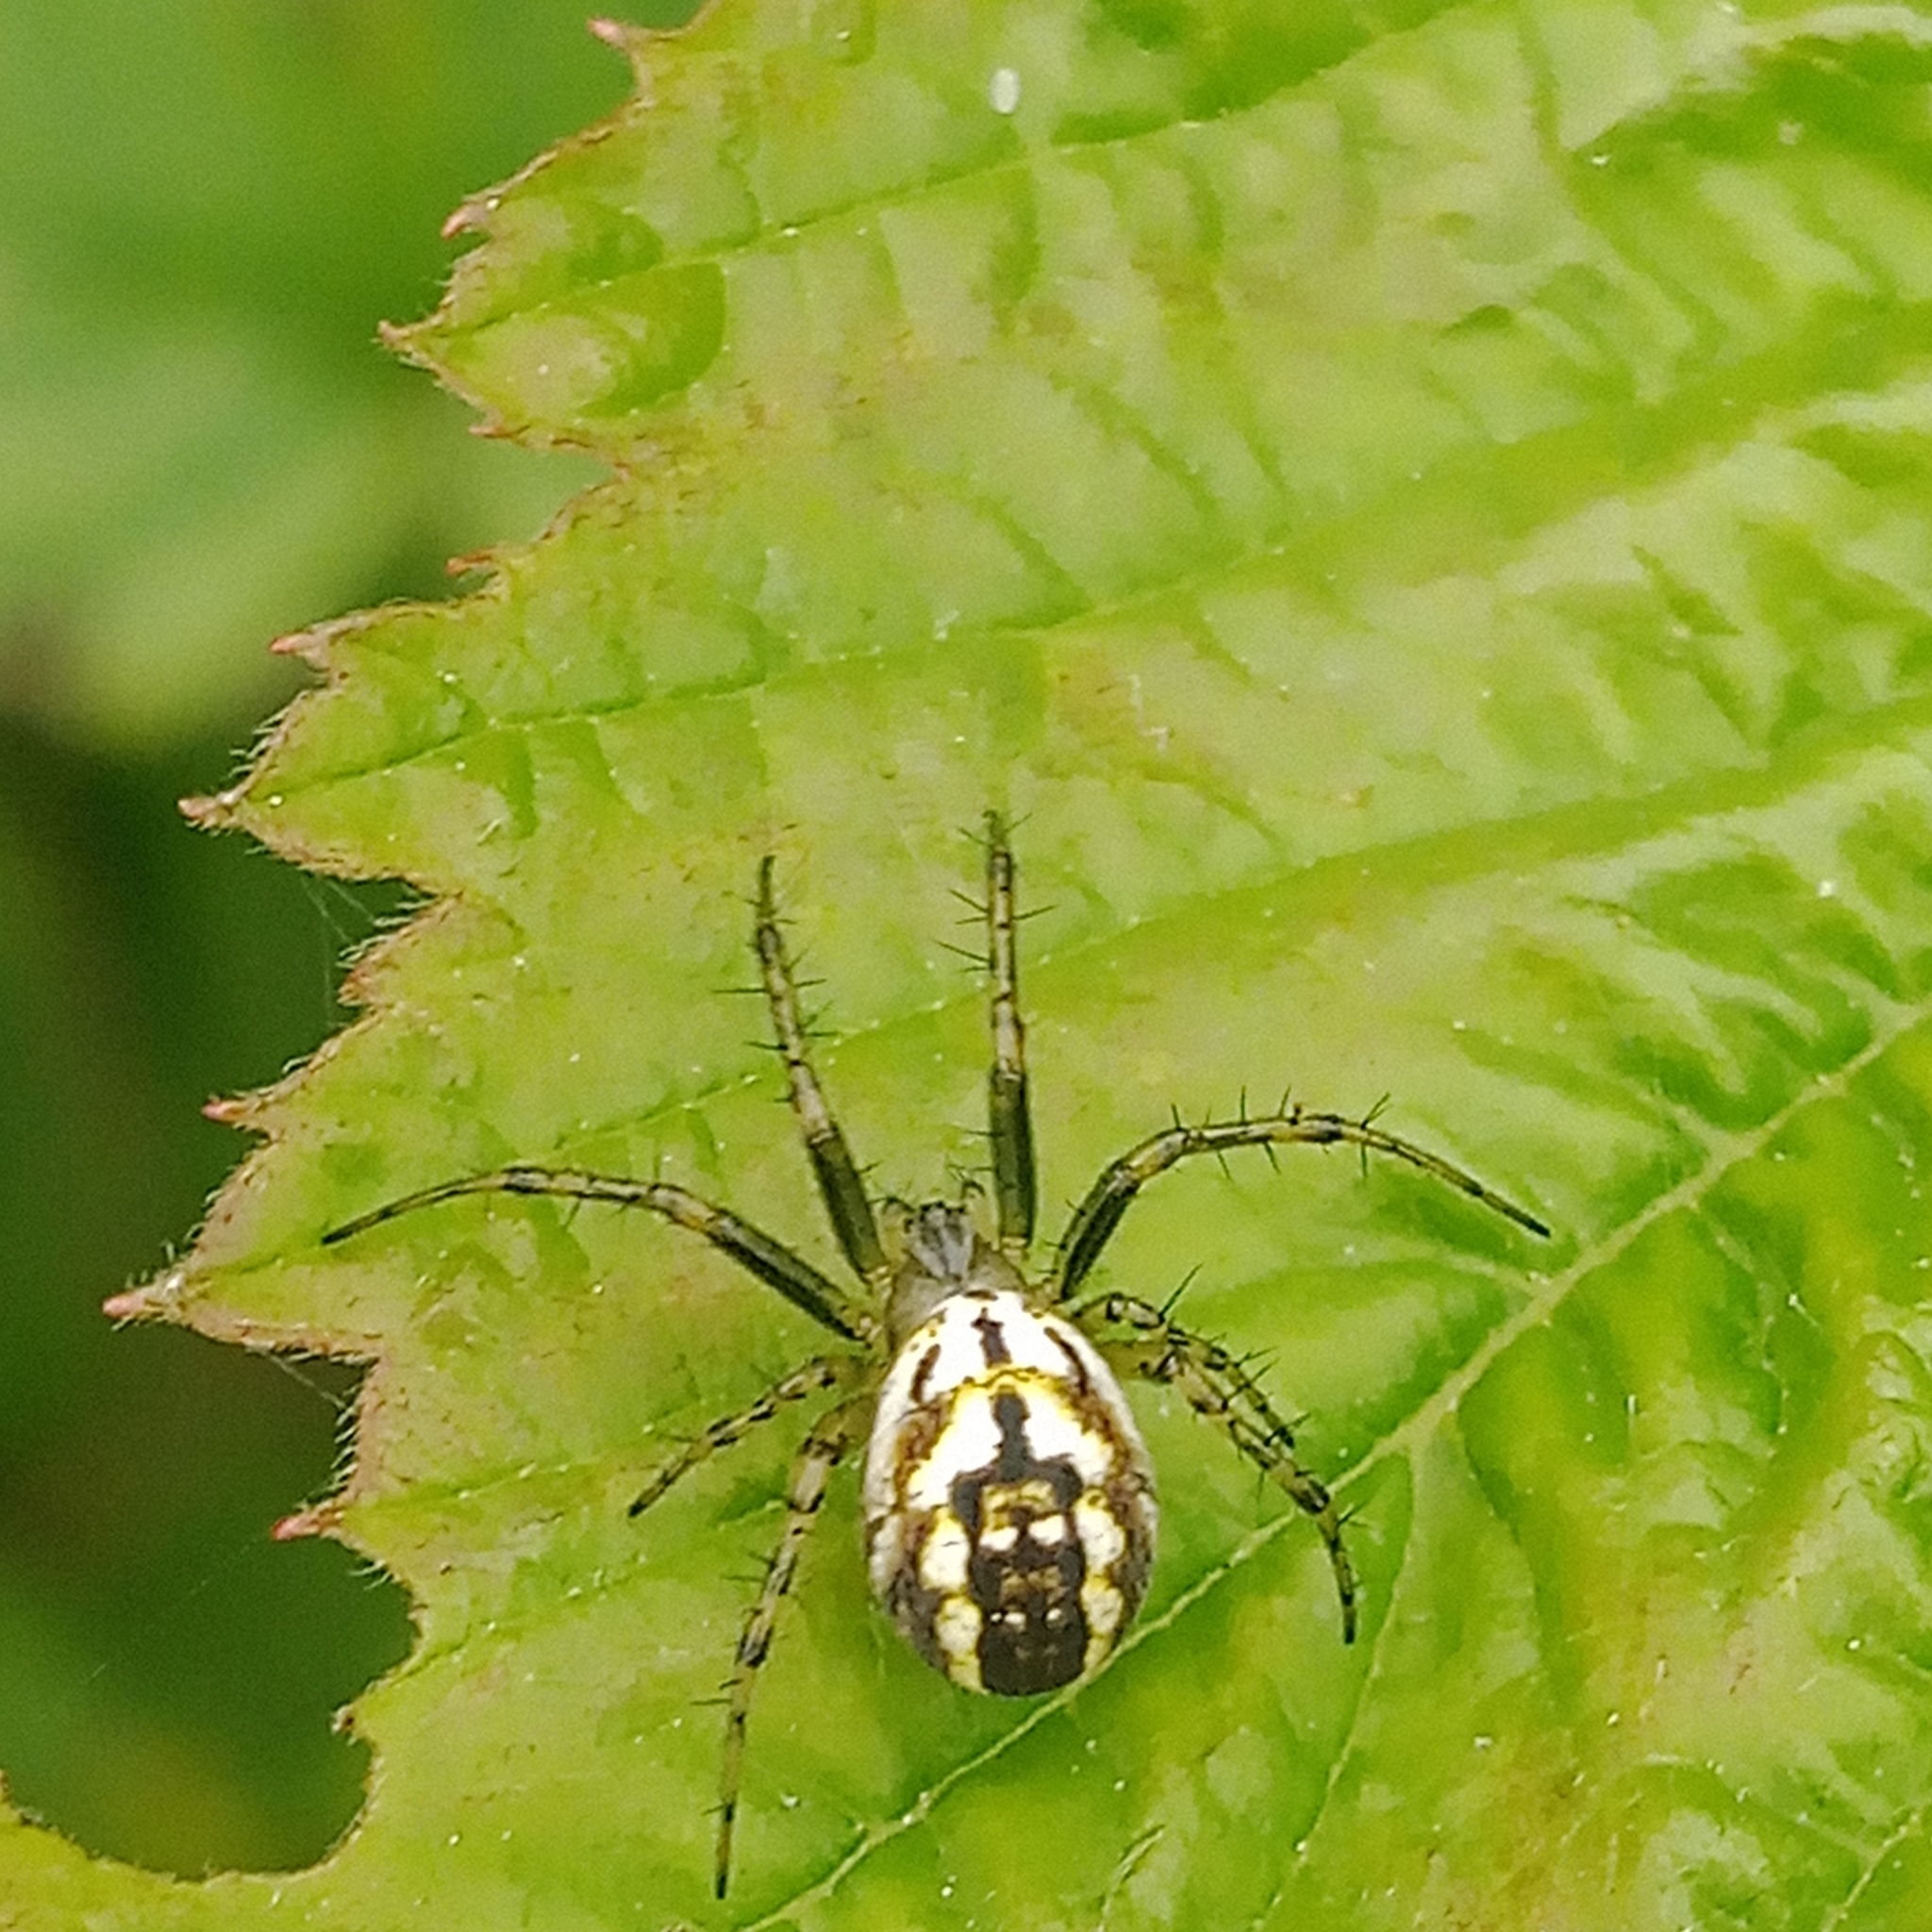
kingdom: Animalia
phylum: Arthropoda
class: Arachnida
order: Araneae
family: Araneidae
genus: Mangora
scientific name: Mangora acalypha
